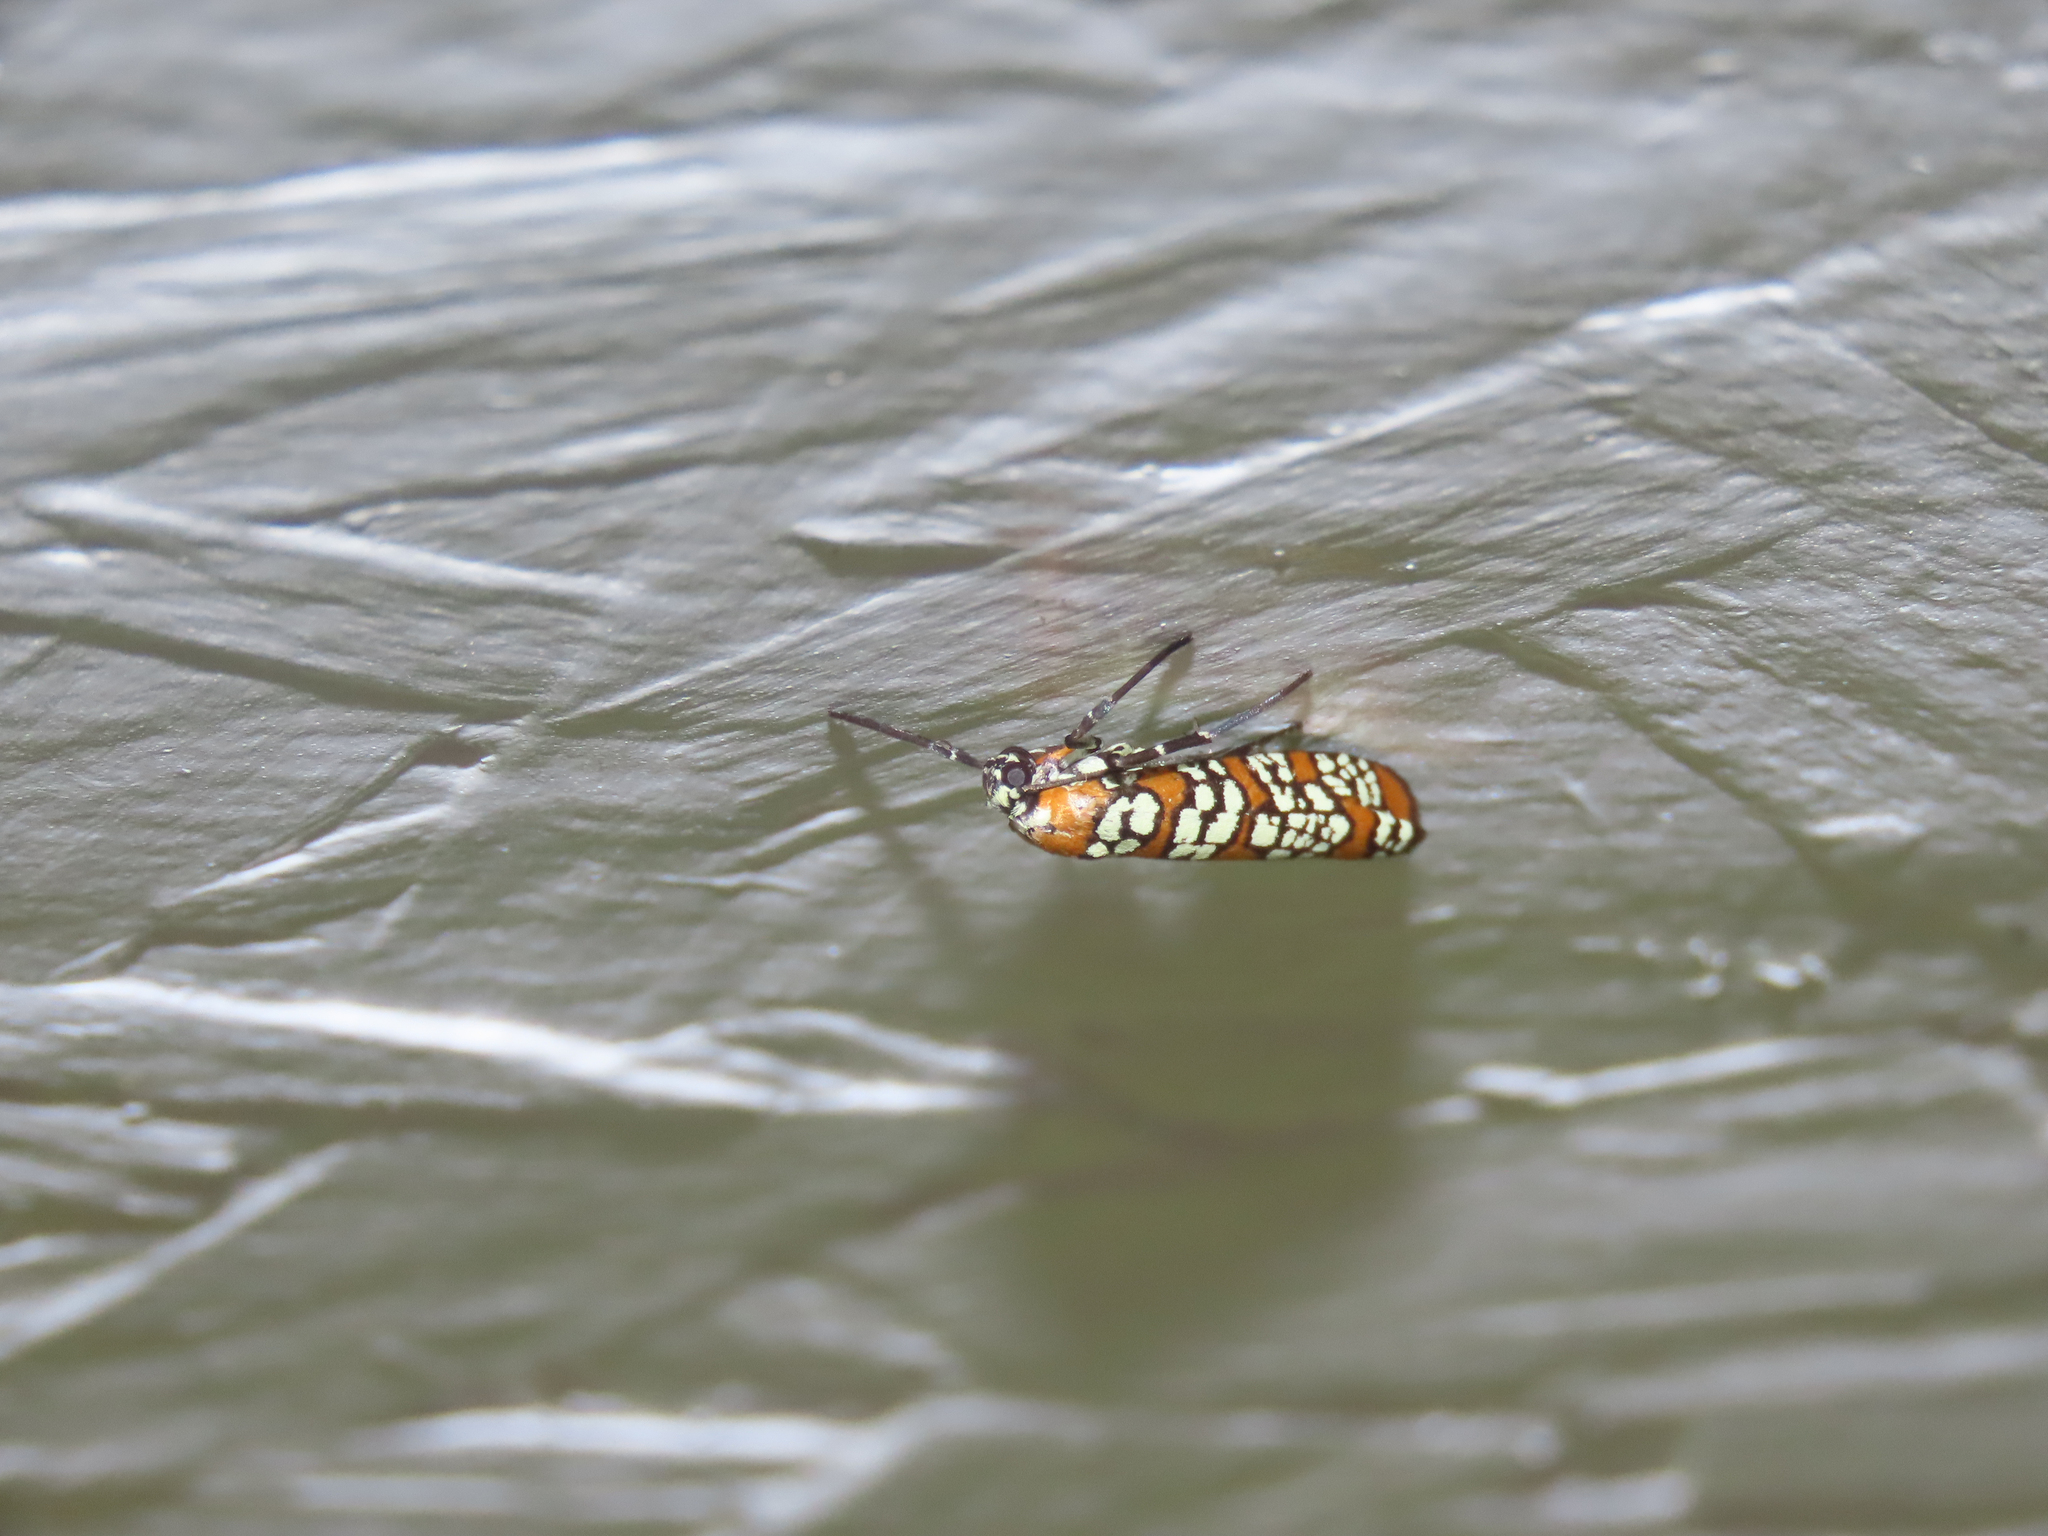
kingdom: Animalia
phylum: Arthropoda
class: Insecta
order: Lepidoptera
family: Attevidae
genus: Atteva
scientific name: Atteva punctella
